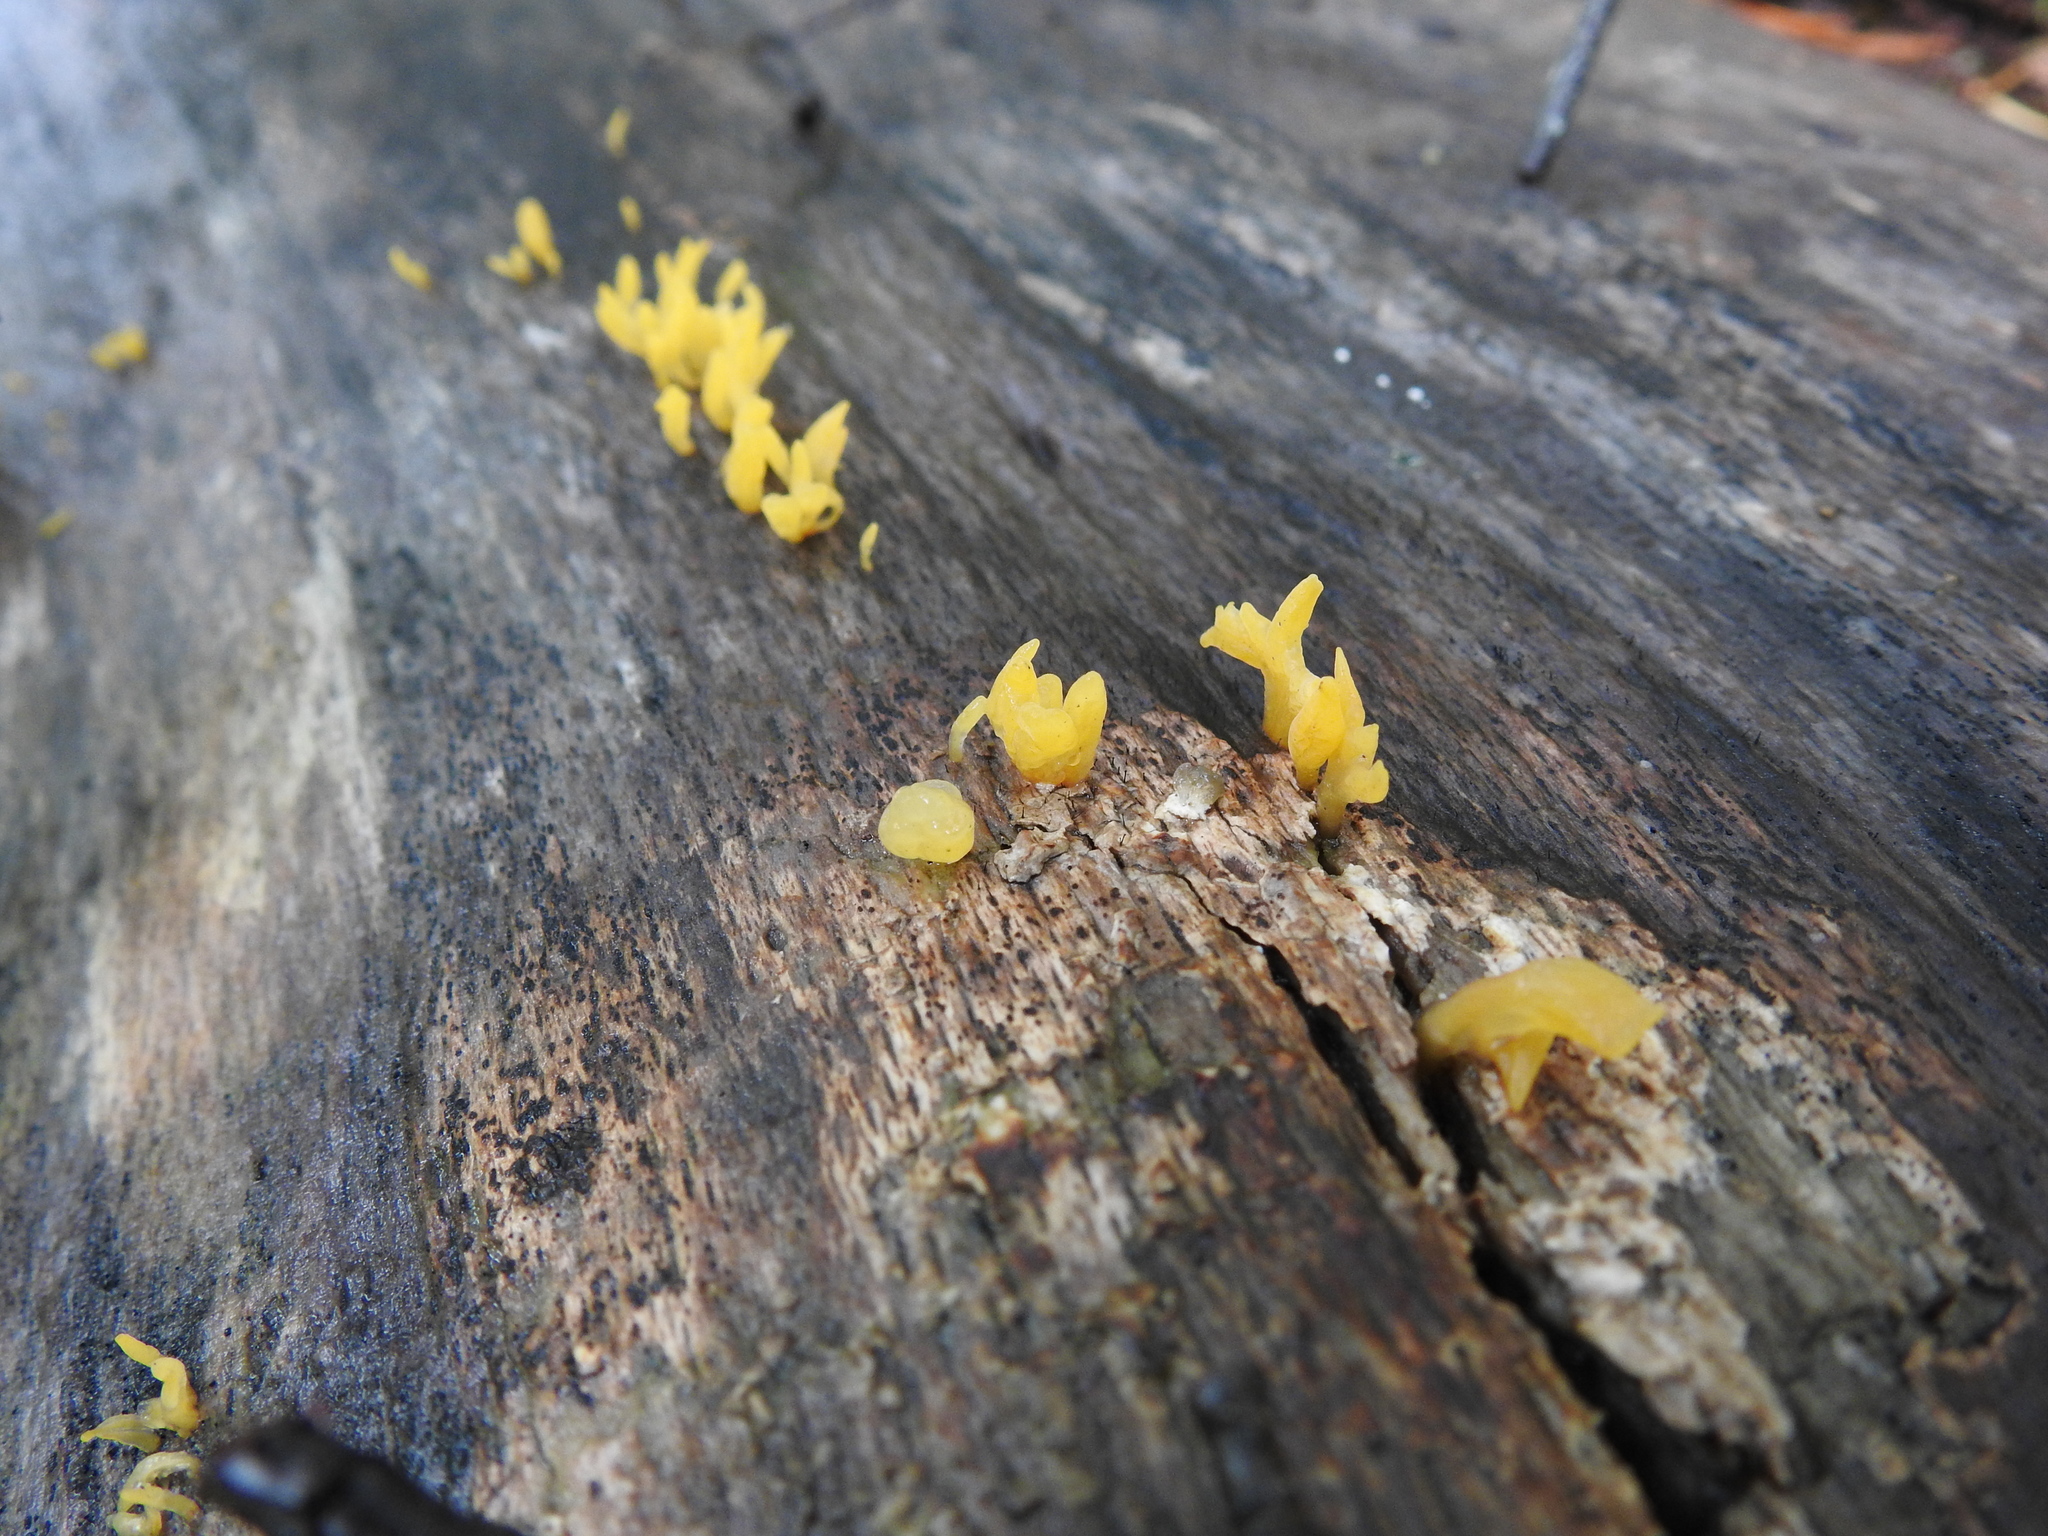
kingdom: Fungi
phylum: Basidiomycota
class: Dacrymycetes
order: Dacrymycetales
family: Dacrymycetaceae
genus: Calocera
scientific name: Calocera cornea
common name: Small stagshorn
